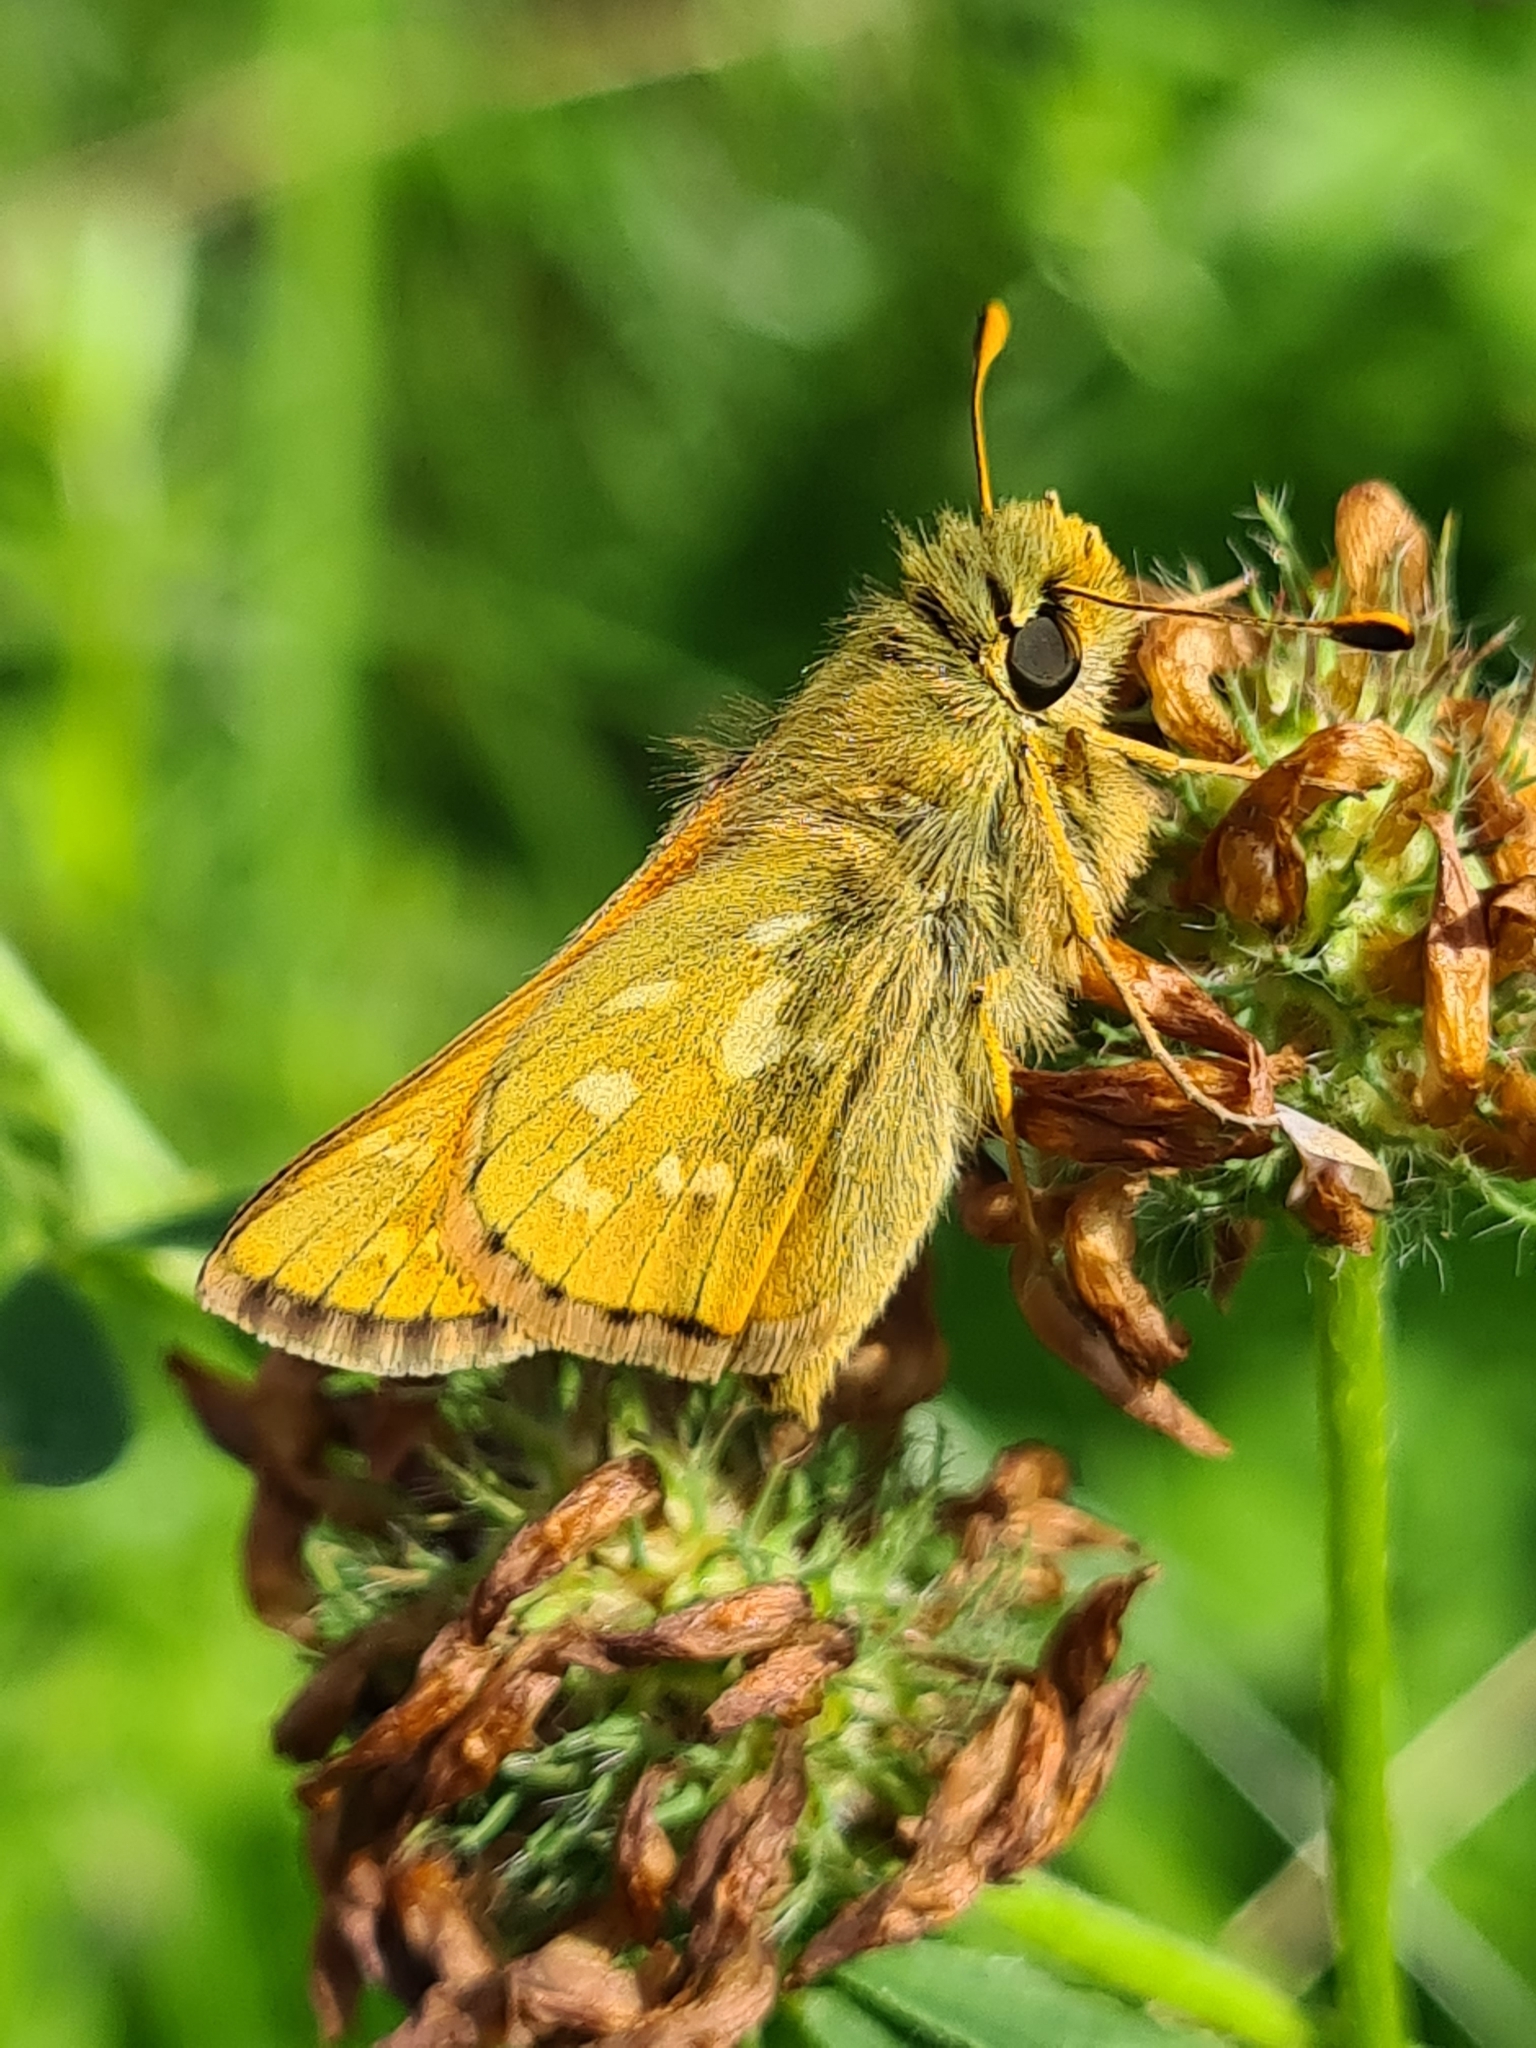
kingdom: Animalia
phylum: Arthropoda
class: Insecta
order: Lepidoptera
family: Hesperiidae
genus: Hesperia
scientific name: Hesperia comma
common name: Common branded skipper
